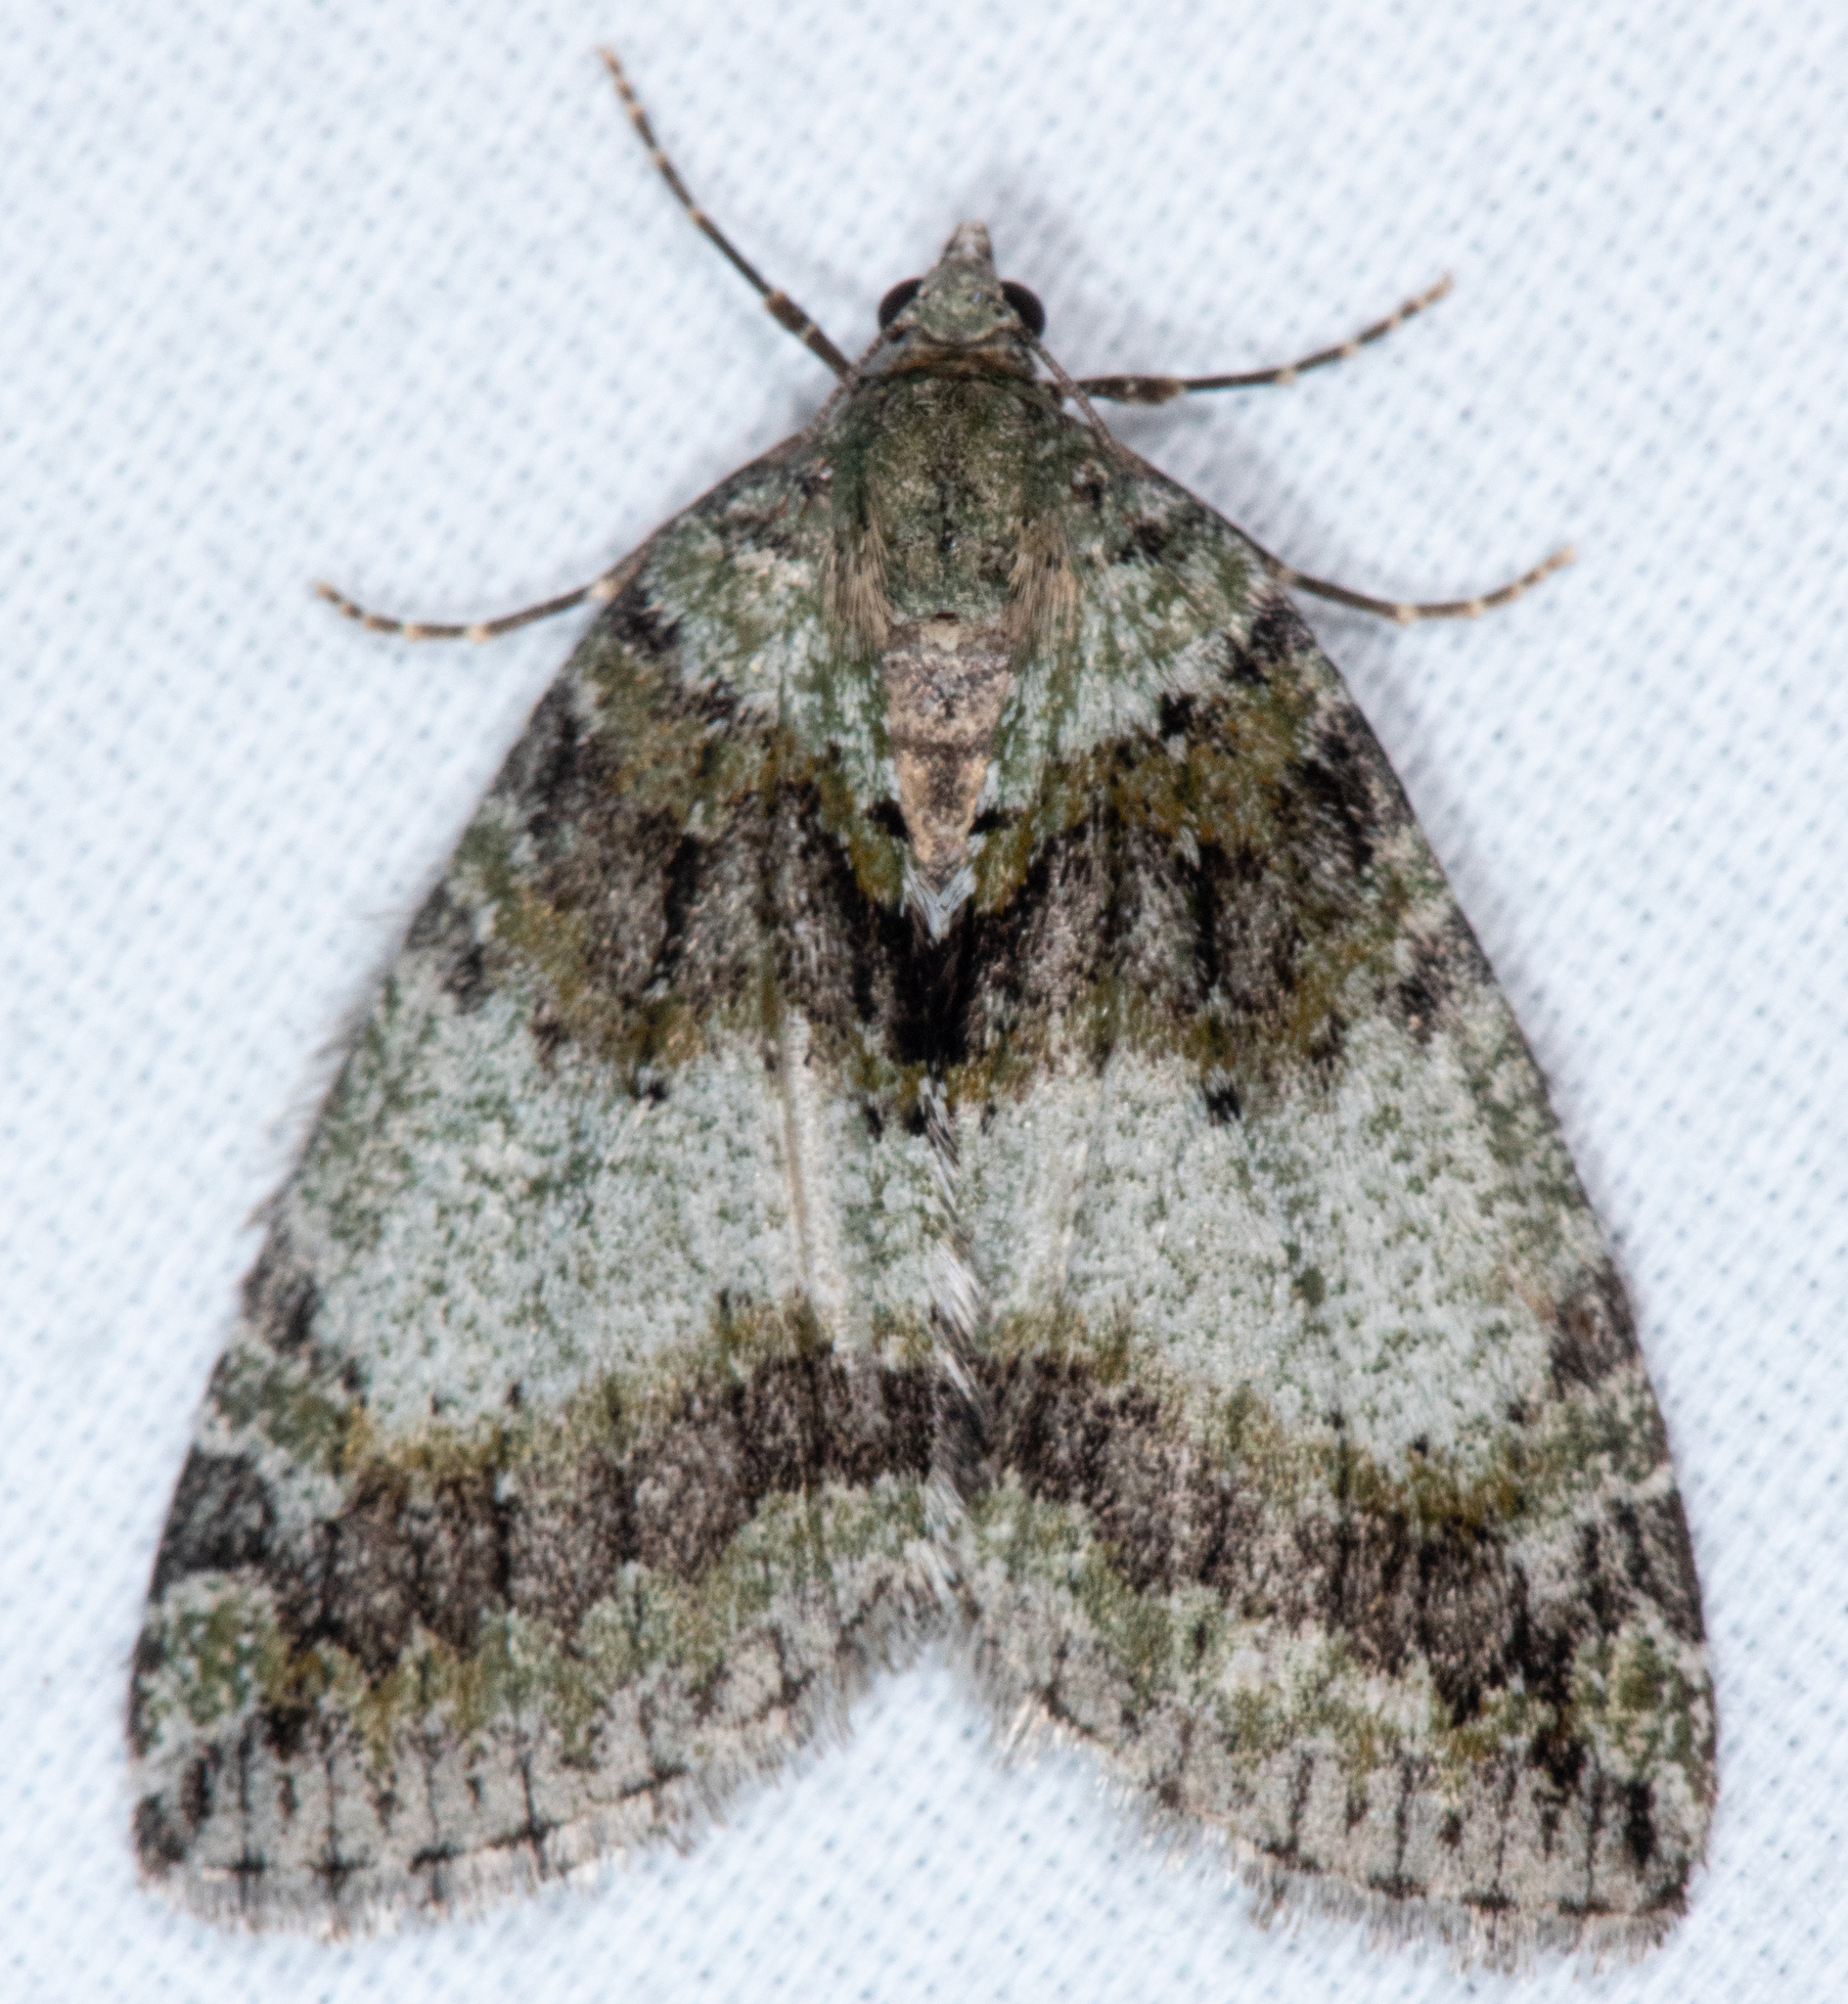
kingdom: Animalia
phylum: Arthropoda
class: Insecta
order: Lepidoptera
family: Geometridae
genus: Hydriomena
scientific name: Hydriomena nubilofasciata
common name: Oak winter highflier moth
